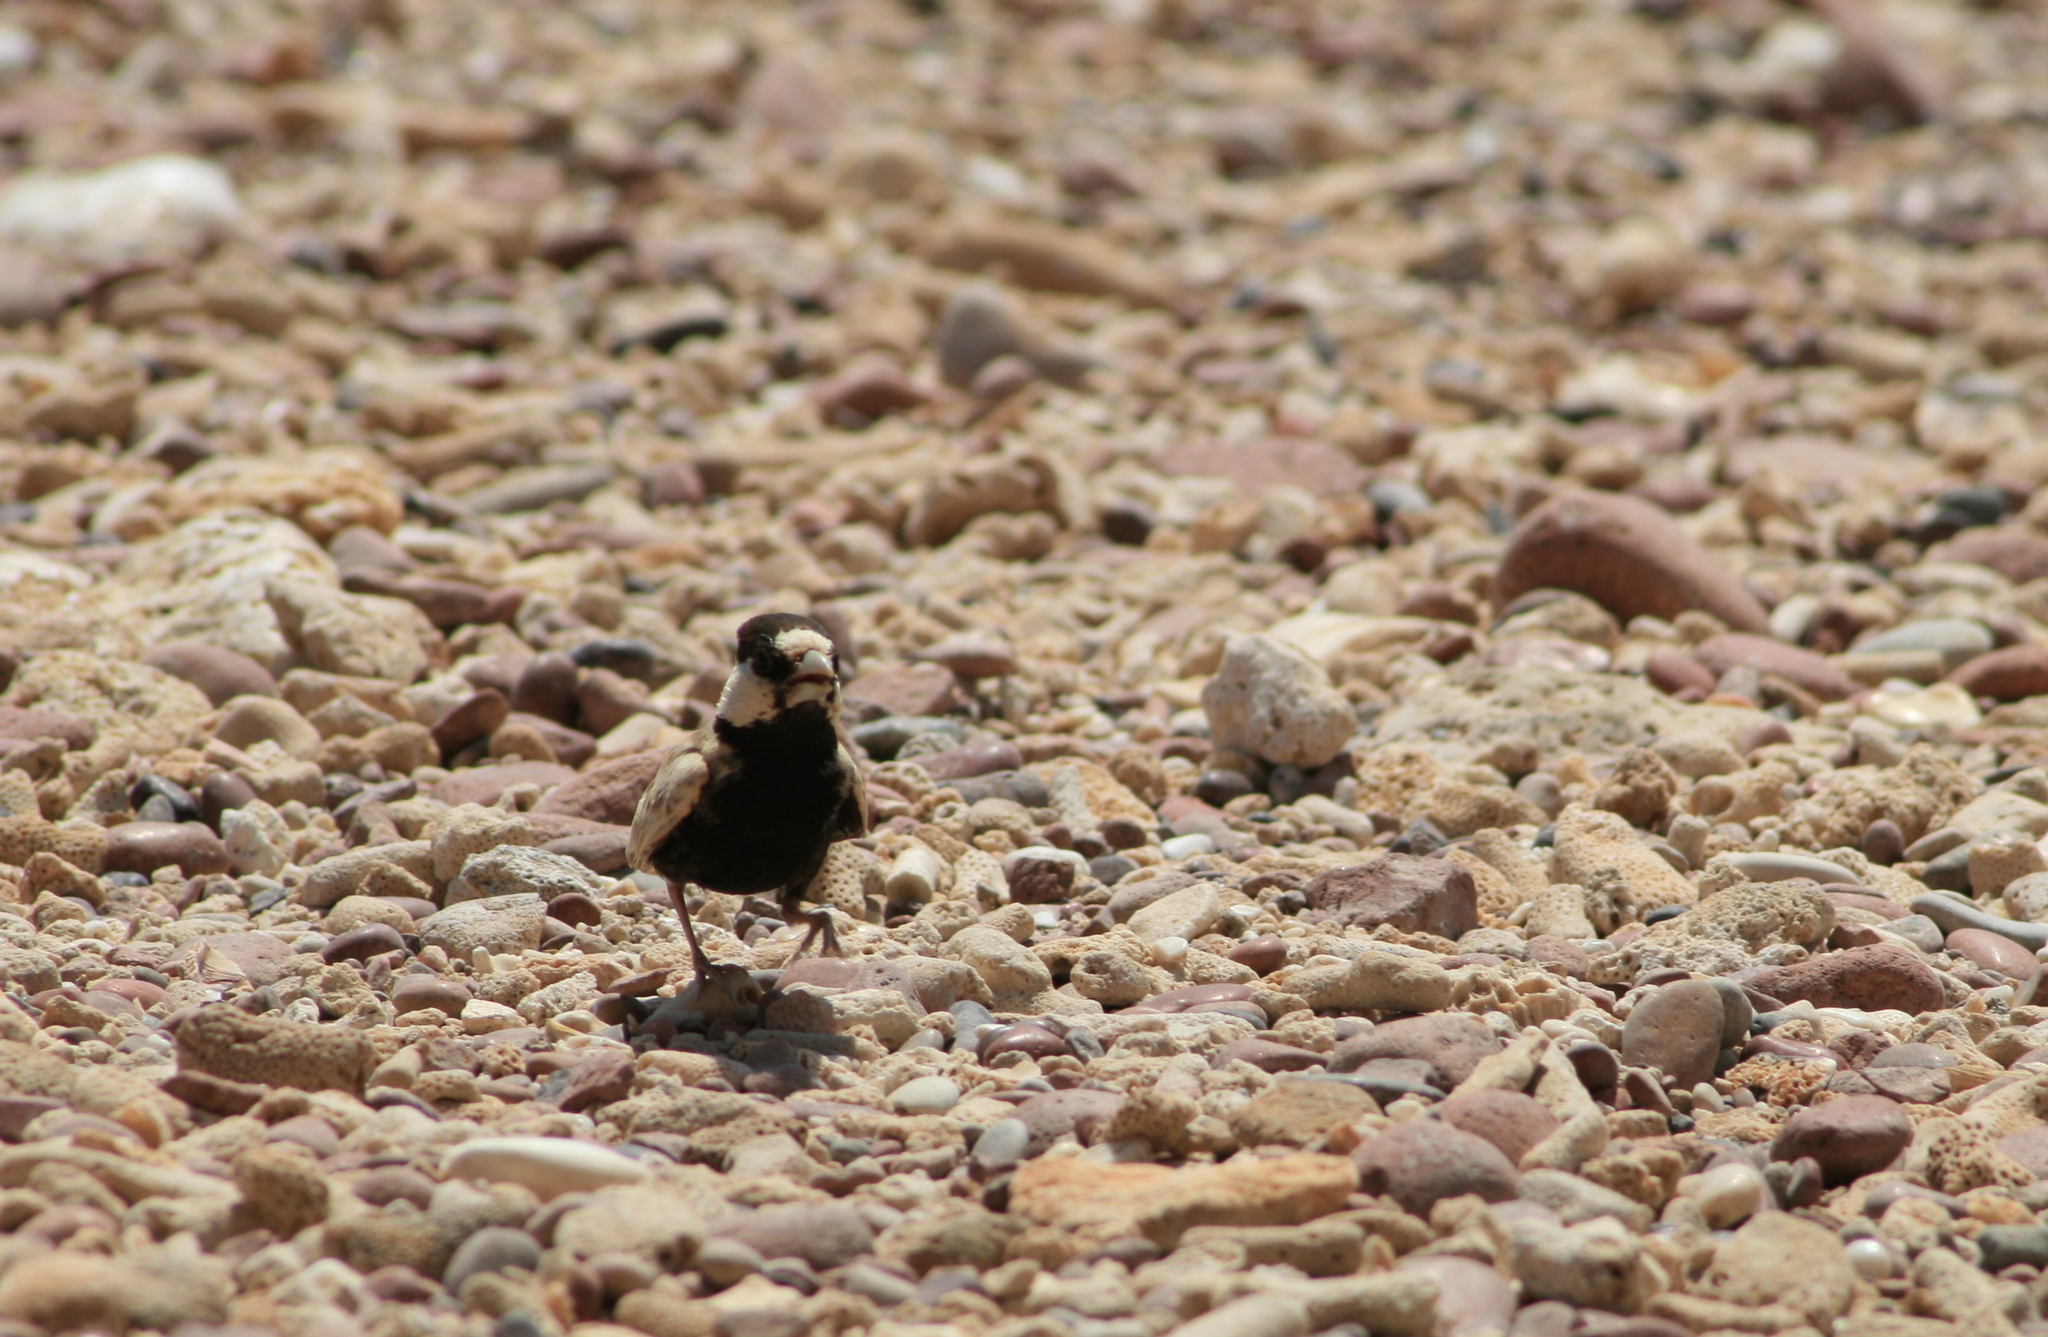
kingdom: Animalia
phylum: Chordata
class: Aves
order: Passeriformes
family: Alaudidae
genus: Eremopterix
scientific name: Eremopterix nigriceps
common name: Black-crowned sparrow-lark
